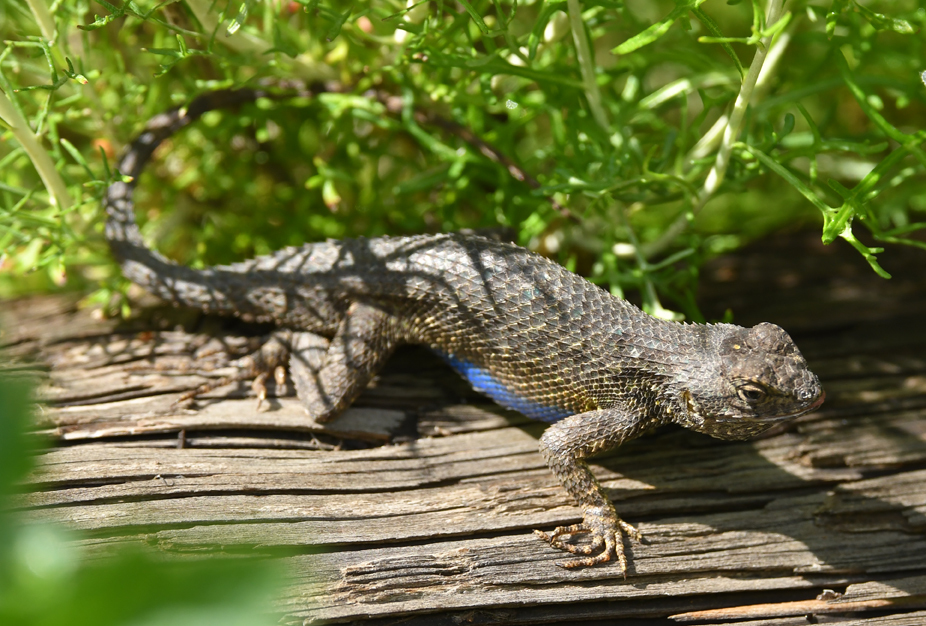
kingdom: Animalia
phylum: Chordata
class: Squamata
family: Phrynosomatidae
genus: Sceloporus
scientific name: Sceloporus occidentalis
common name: Western fence lizard
